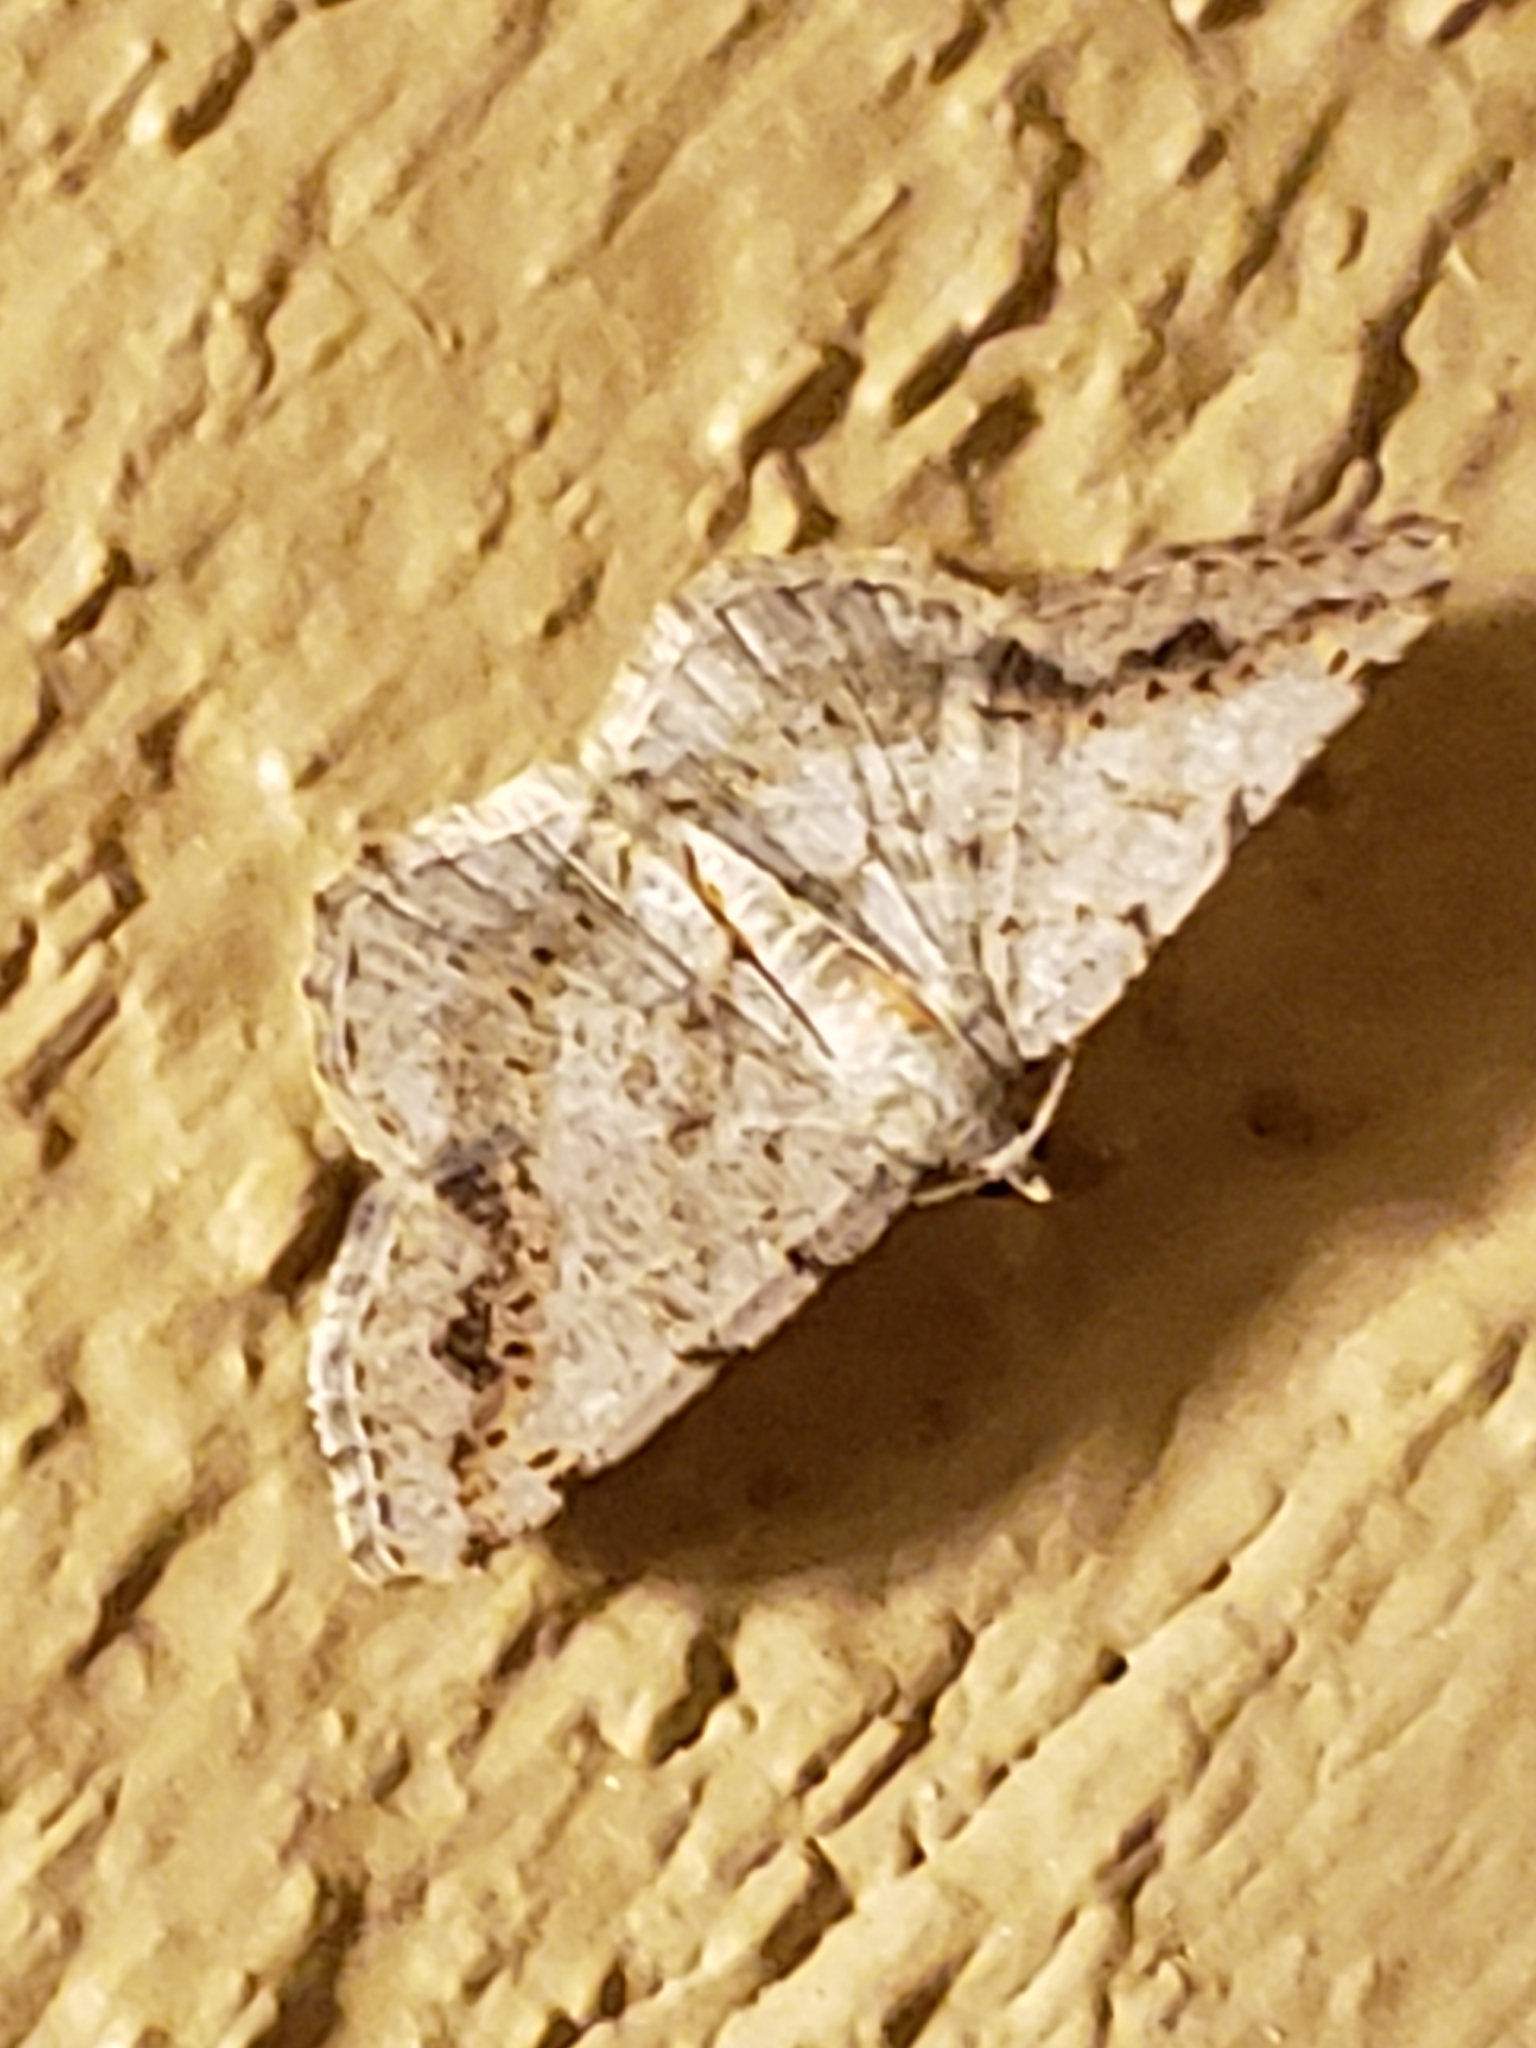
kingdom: Animalia
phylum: Arthropoda
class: Insecta
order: Lepidoptera
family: Geometridae
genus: Digrammia
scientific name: Digrammia ocellinata
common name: Faint-spotted angle
